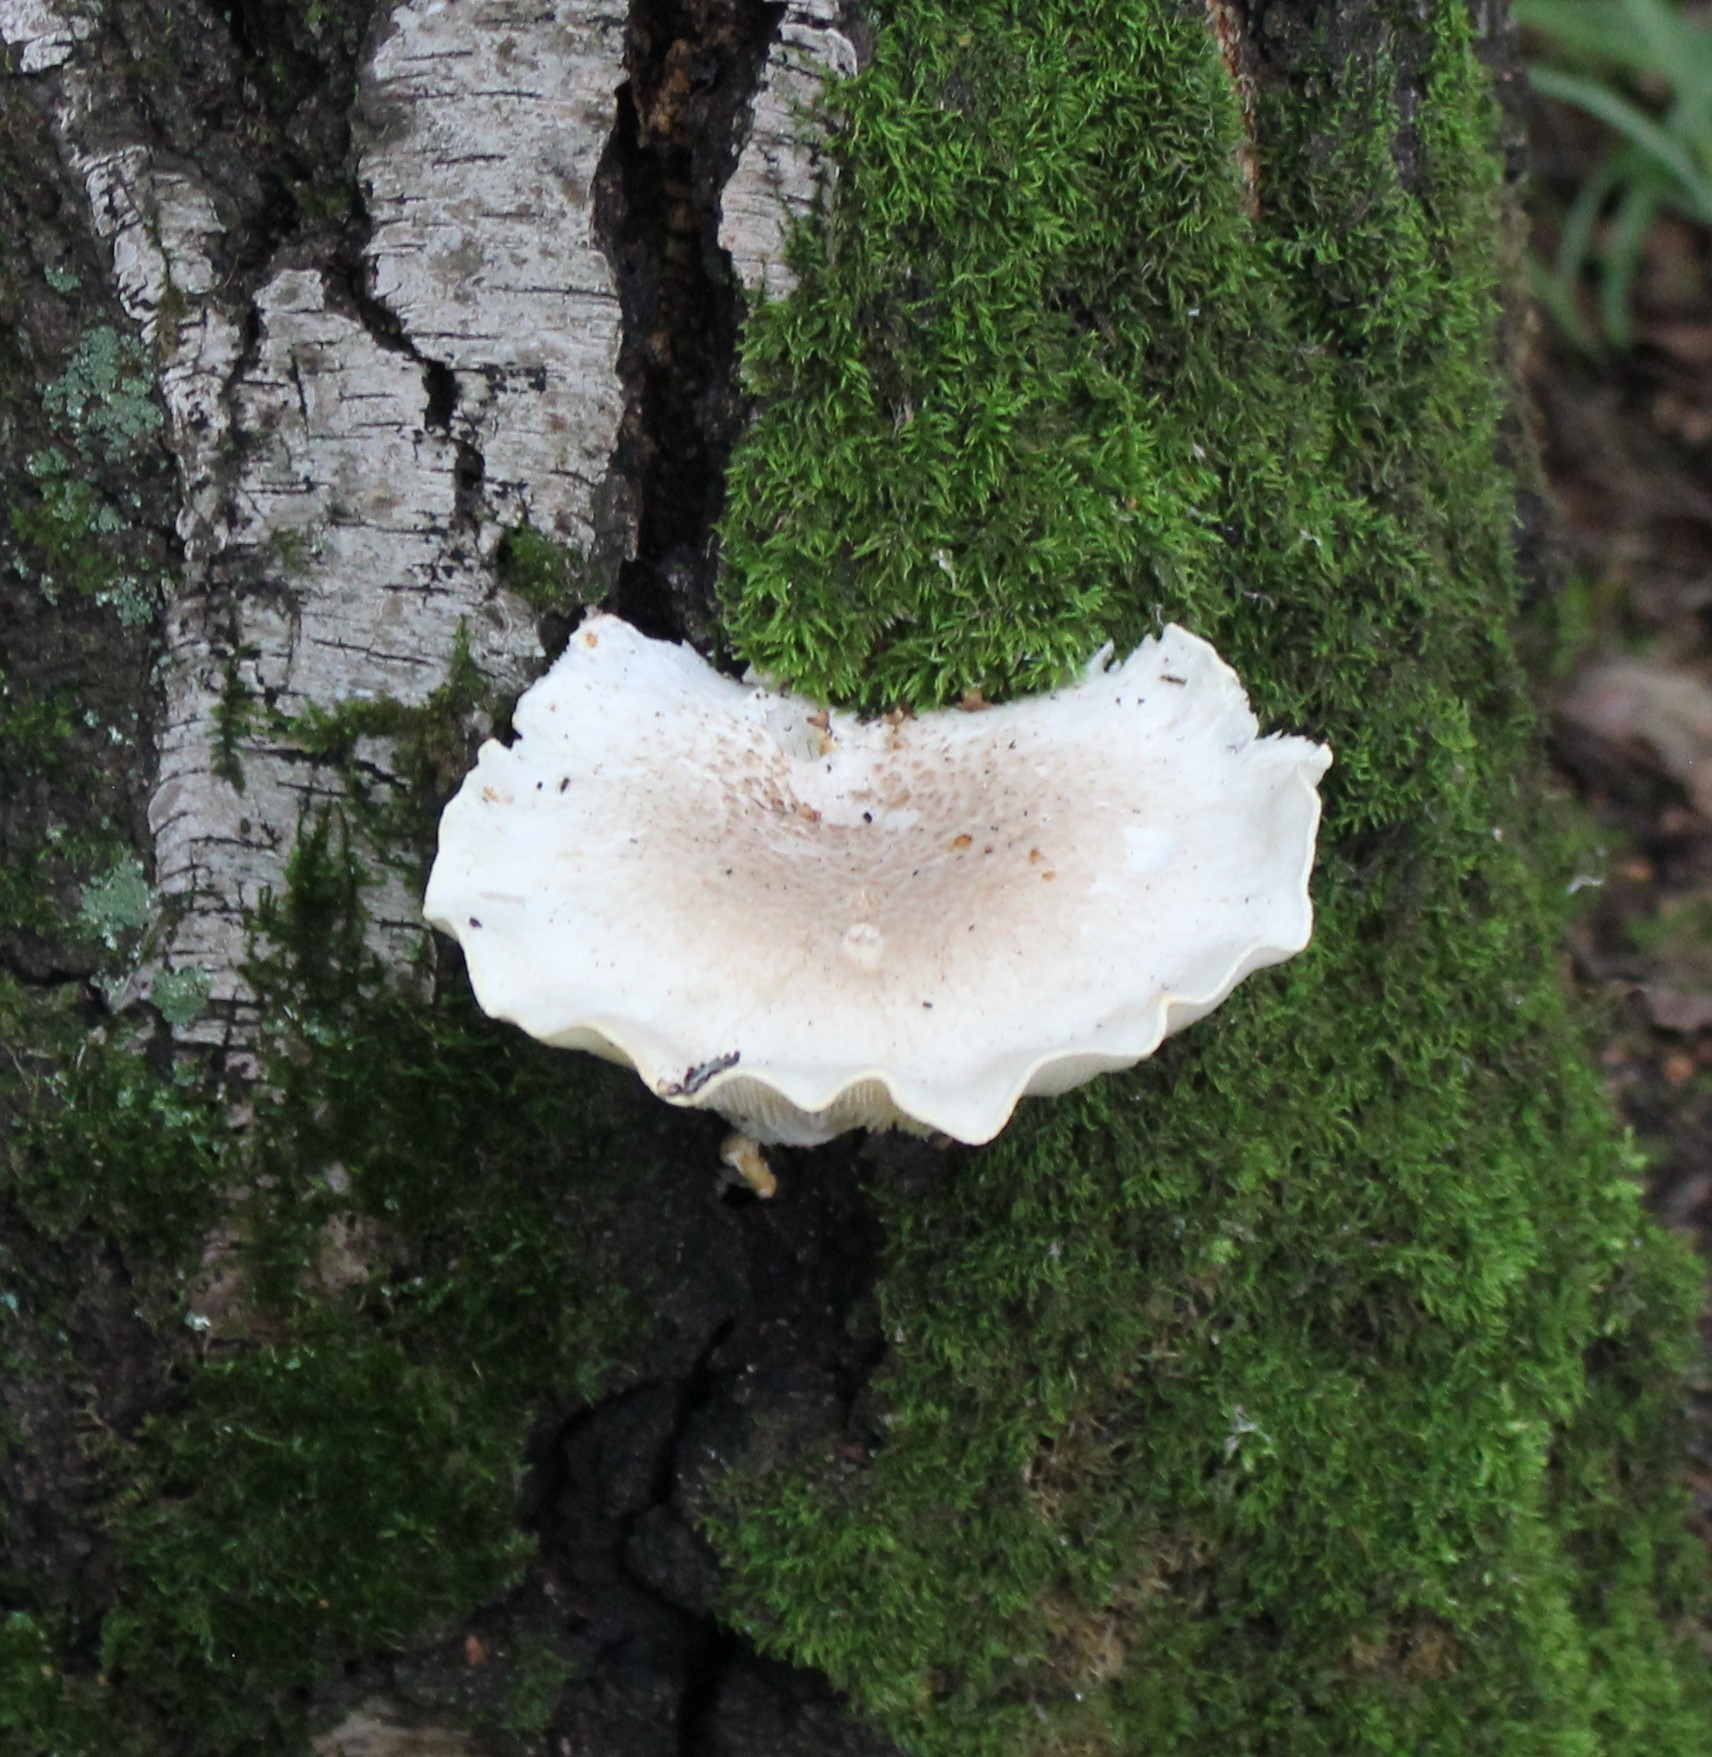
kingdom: Fungi
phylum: Basidiomycota
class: Agaricomycetes
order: Agaricales
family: Pleurotaceae
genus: Pleurotus
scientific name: Pleurotus dryinus
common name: Veiled oyster
